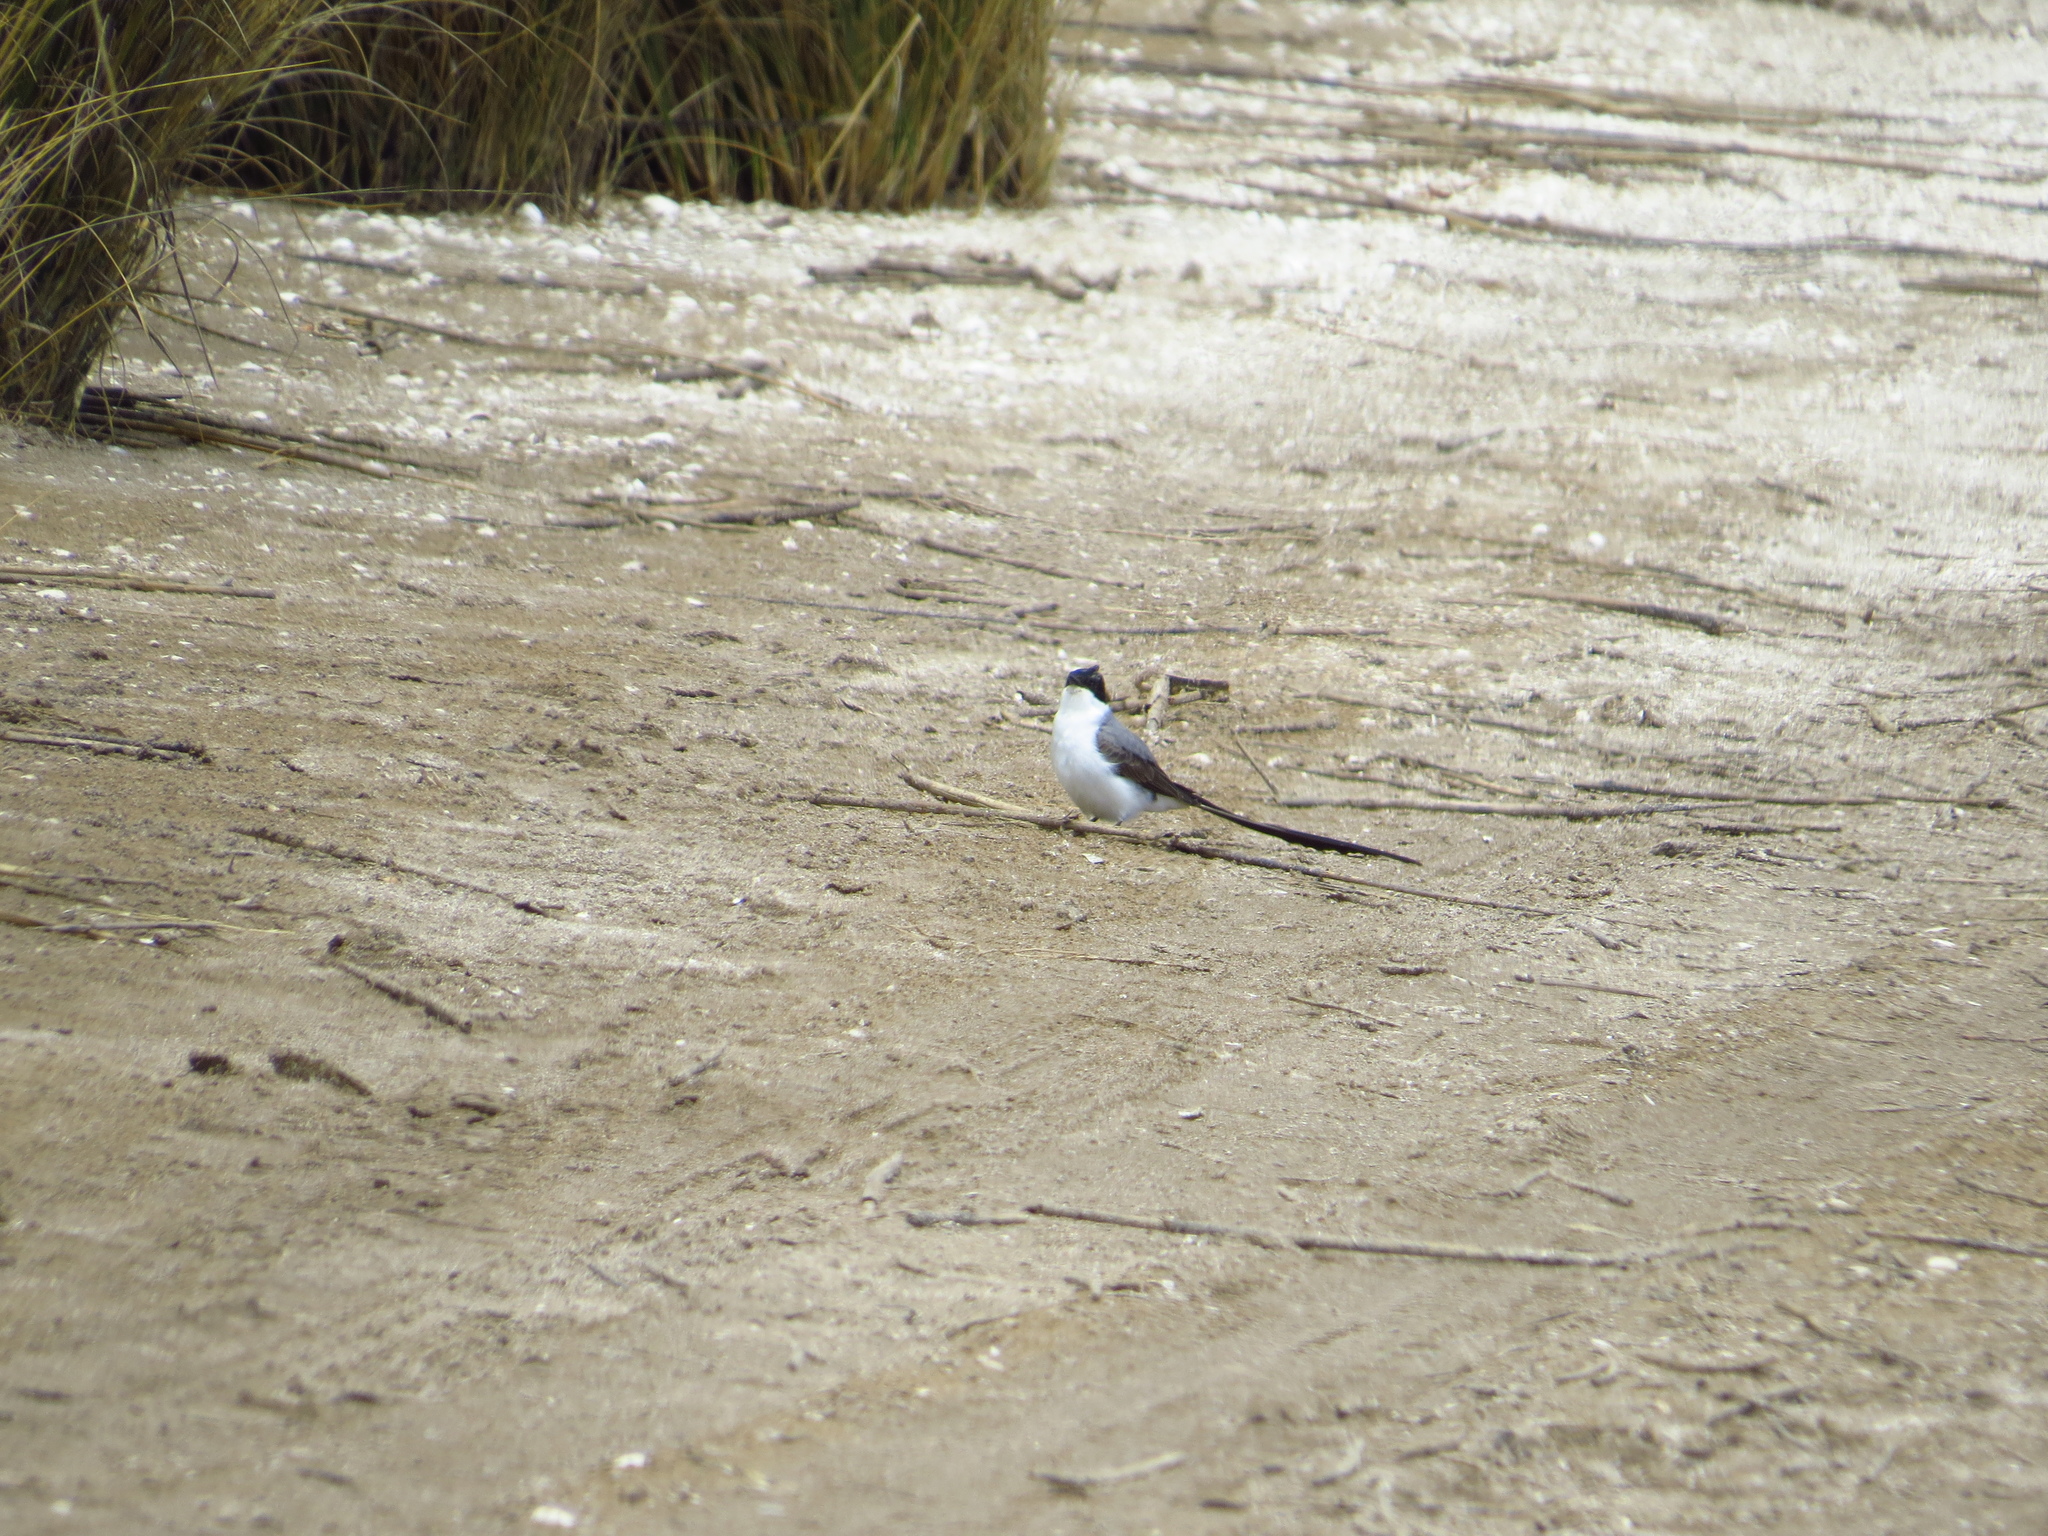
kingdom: Animalia
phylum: Chordata
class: Aves
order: Passeriformes
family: Tyrannidae
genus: Tyrannus
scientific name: Tyrannus savana
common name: Fork-tailed flycatcher
